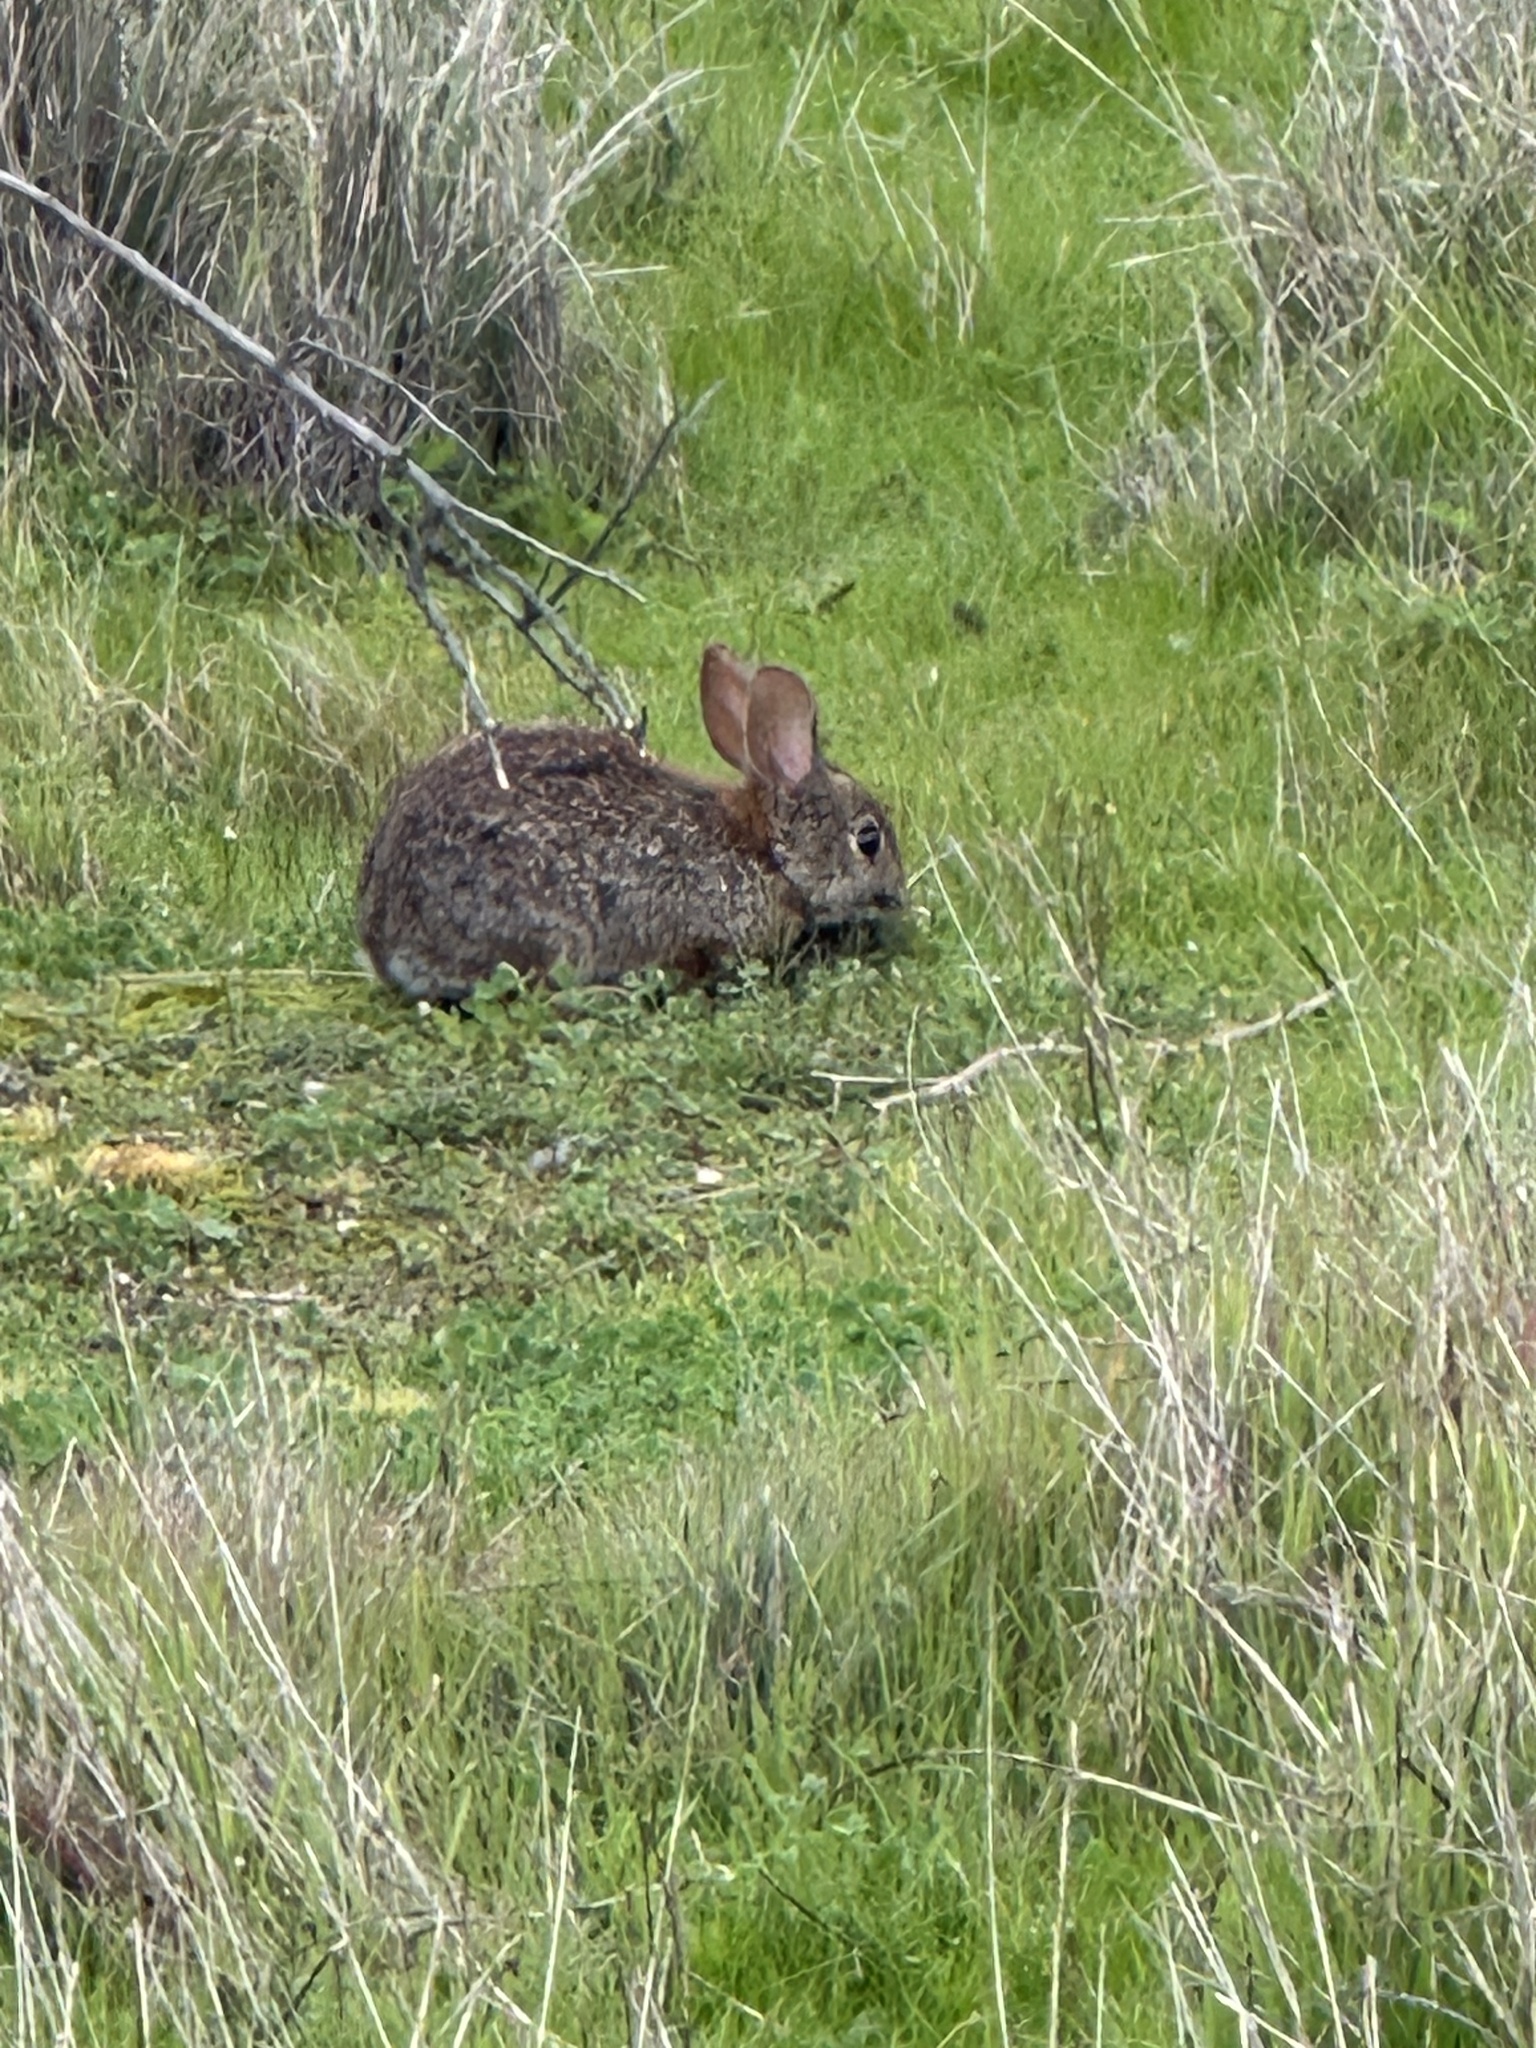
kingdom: Animalia
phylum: Chordata
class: Mammalia
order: Lagomorpha
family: Leporidae
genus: Sylvilagus
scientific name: Sylvilagus bachmani
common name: Brush rabbit
